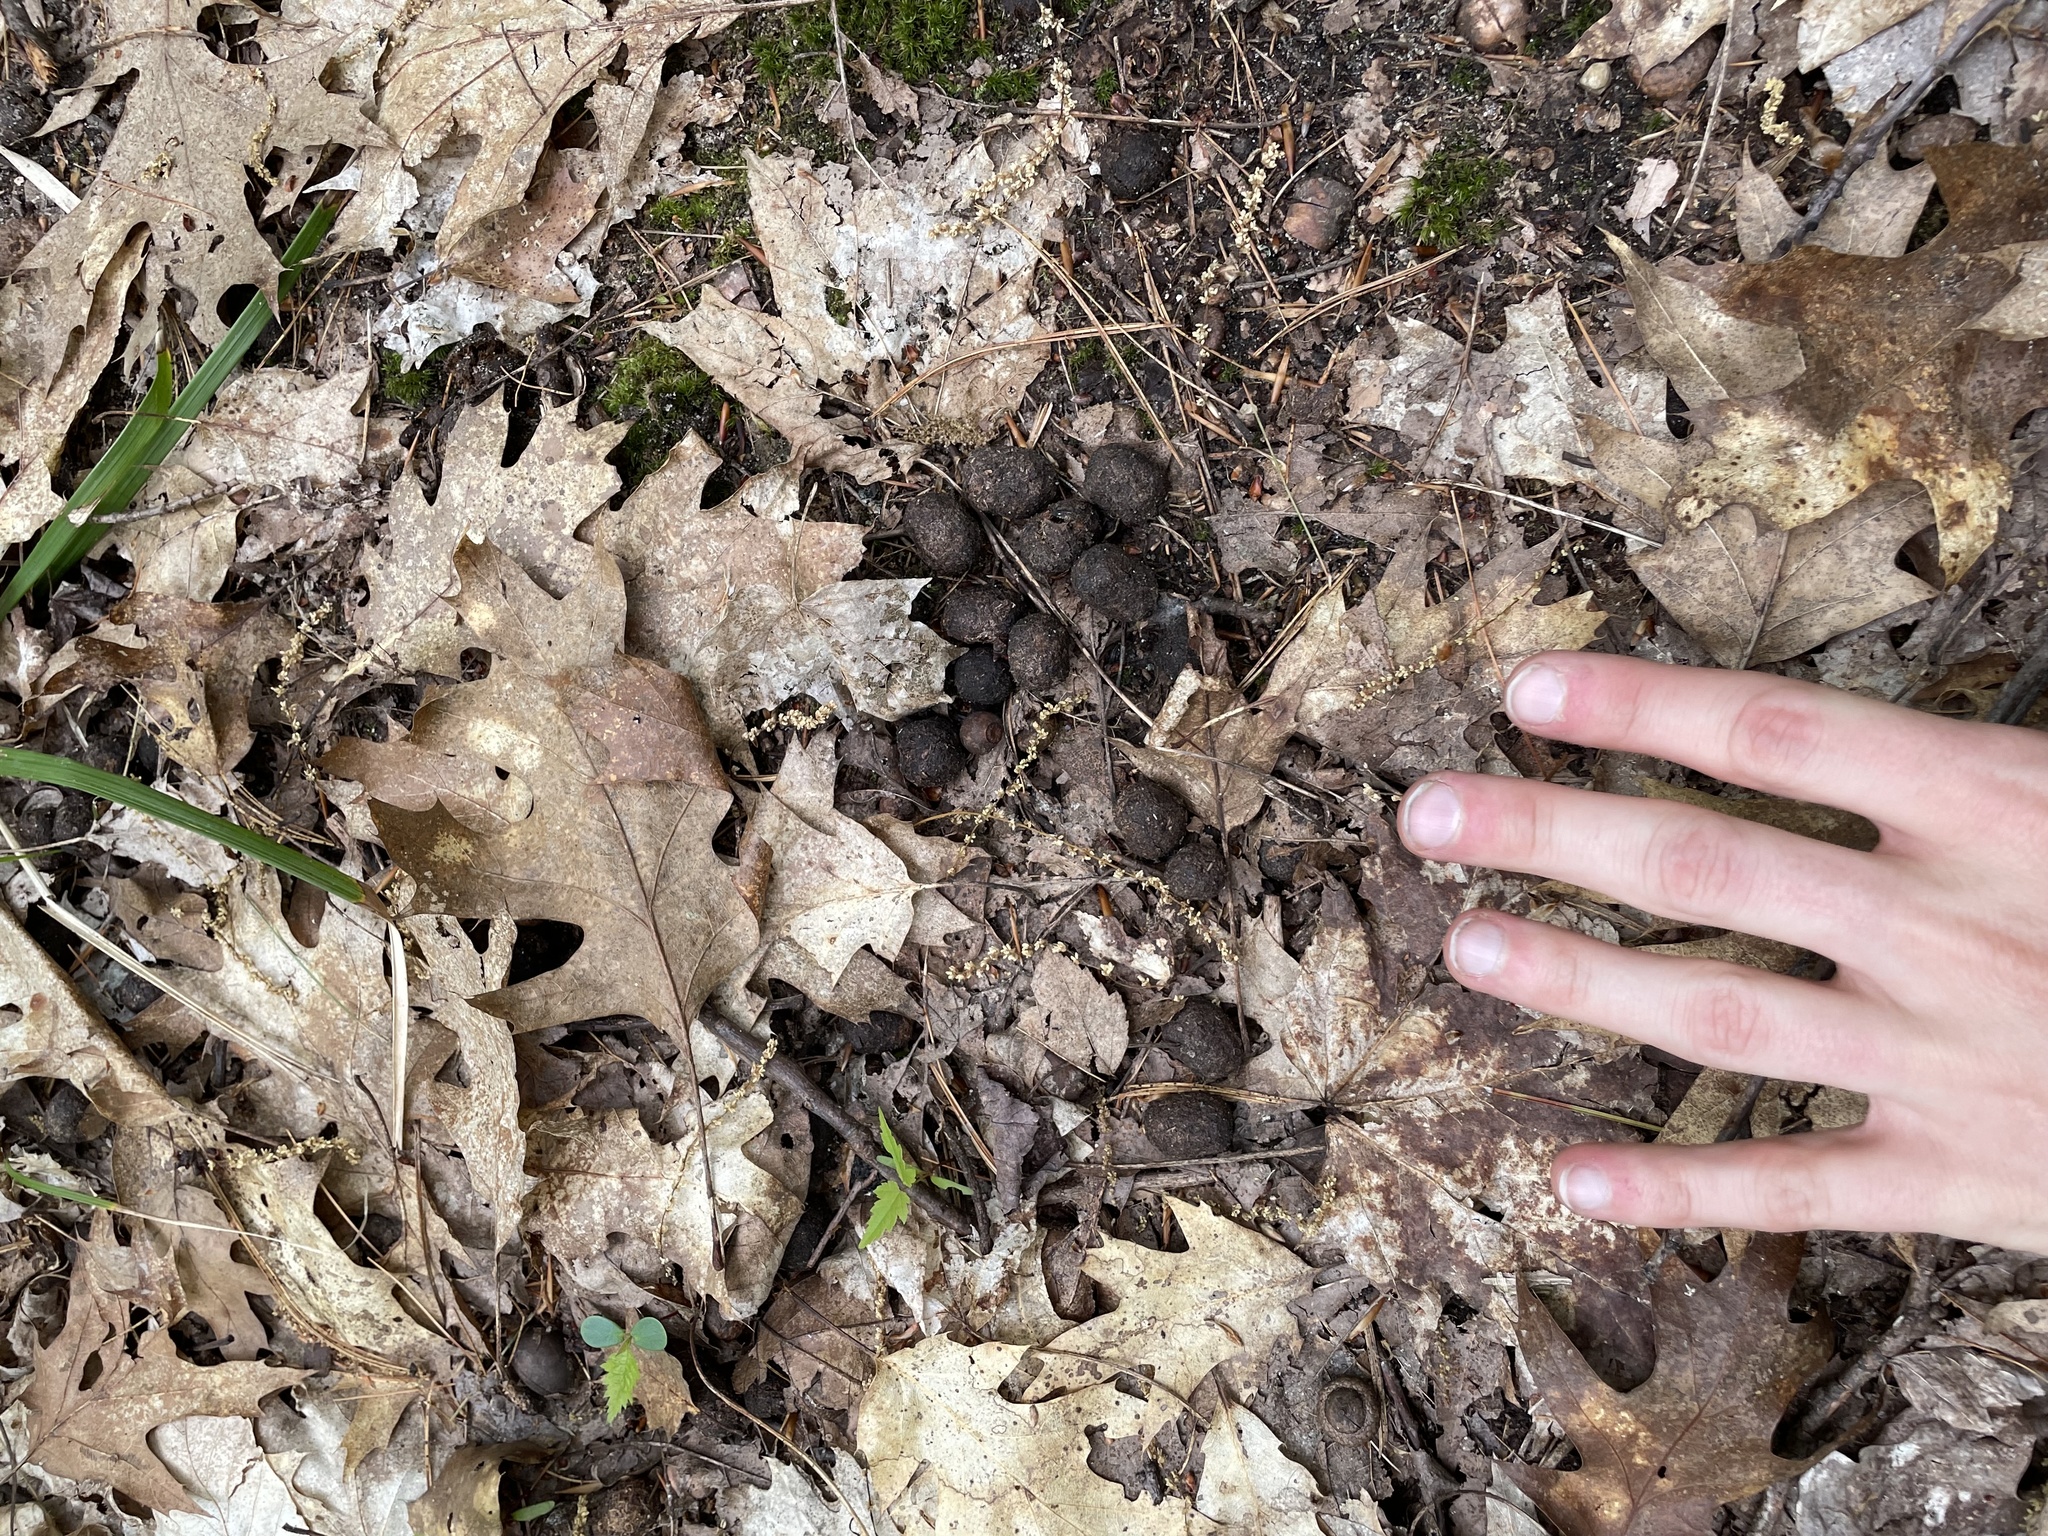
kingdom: Animalia
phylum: Chordata
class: Mammalia
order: Artiodactyla
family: Cervidae
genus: Cervus
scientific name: Cervus elaphus
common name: Red deer
